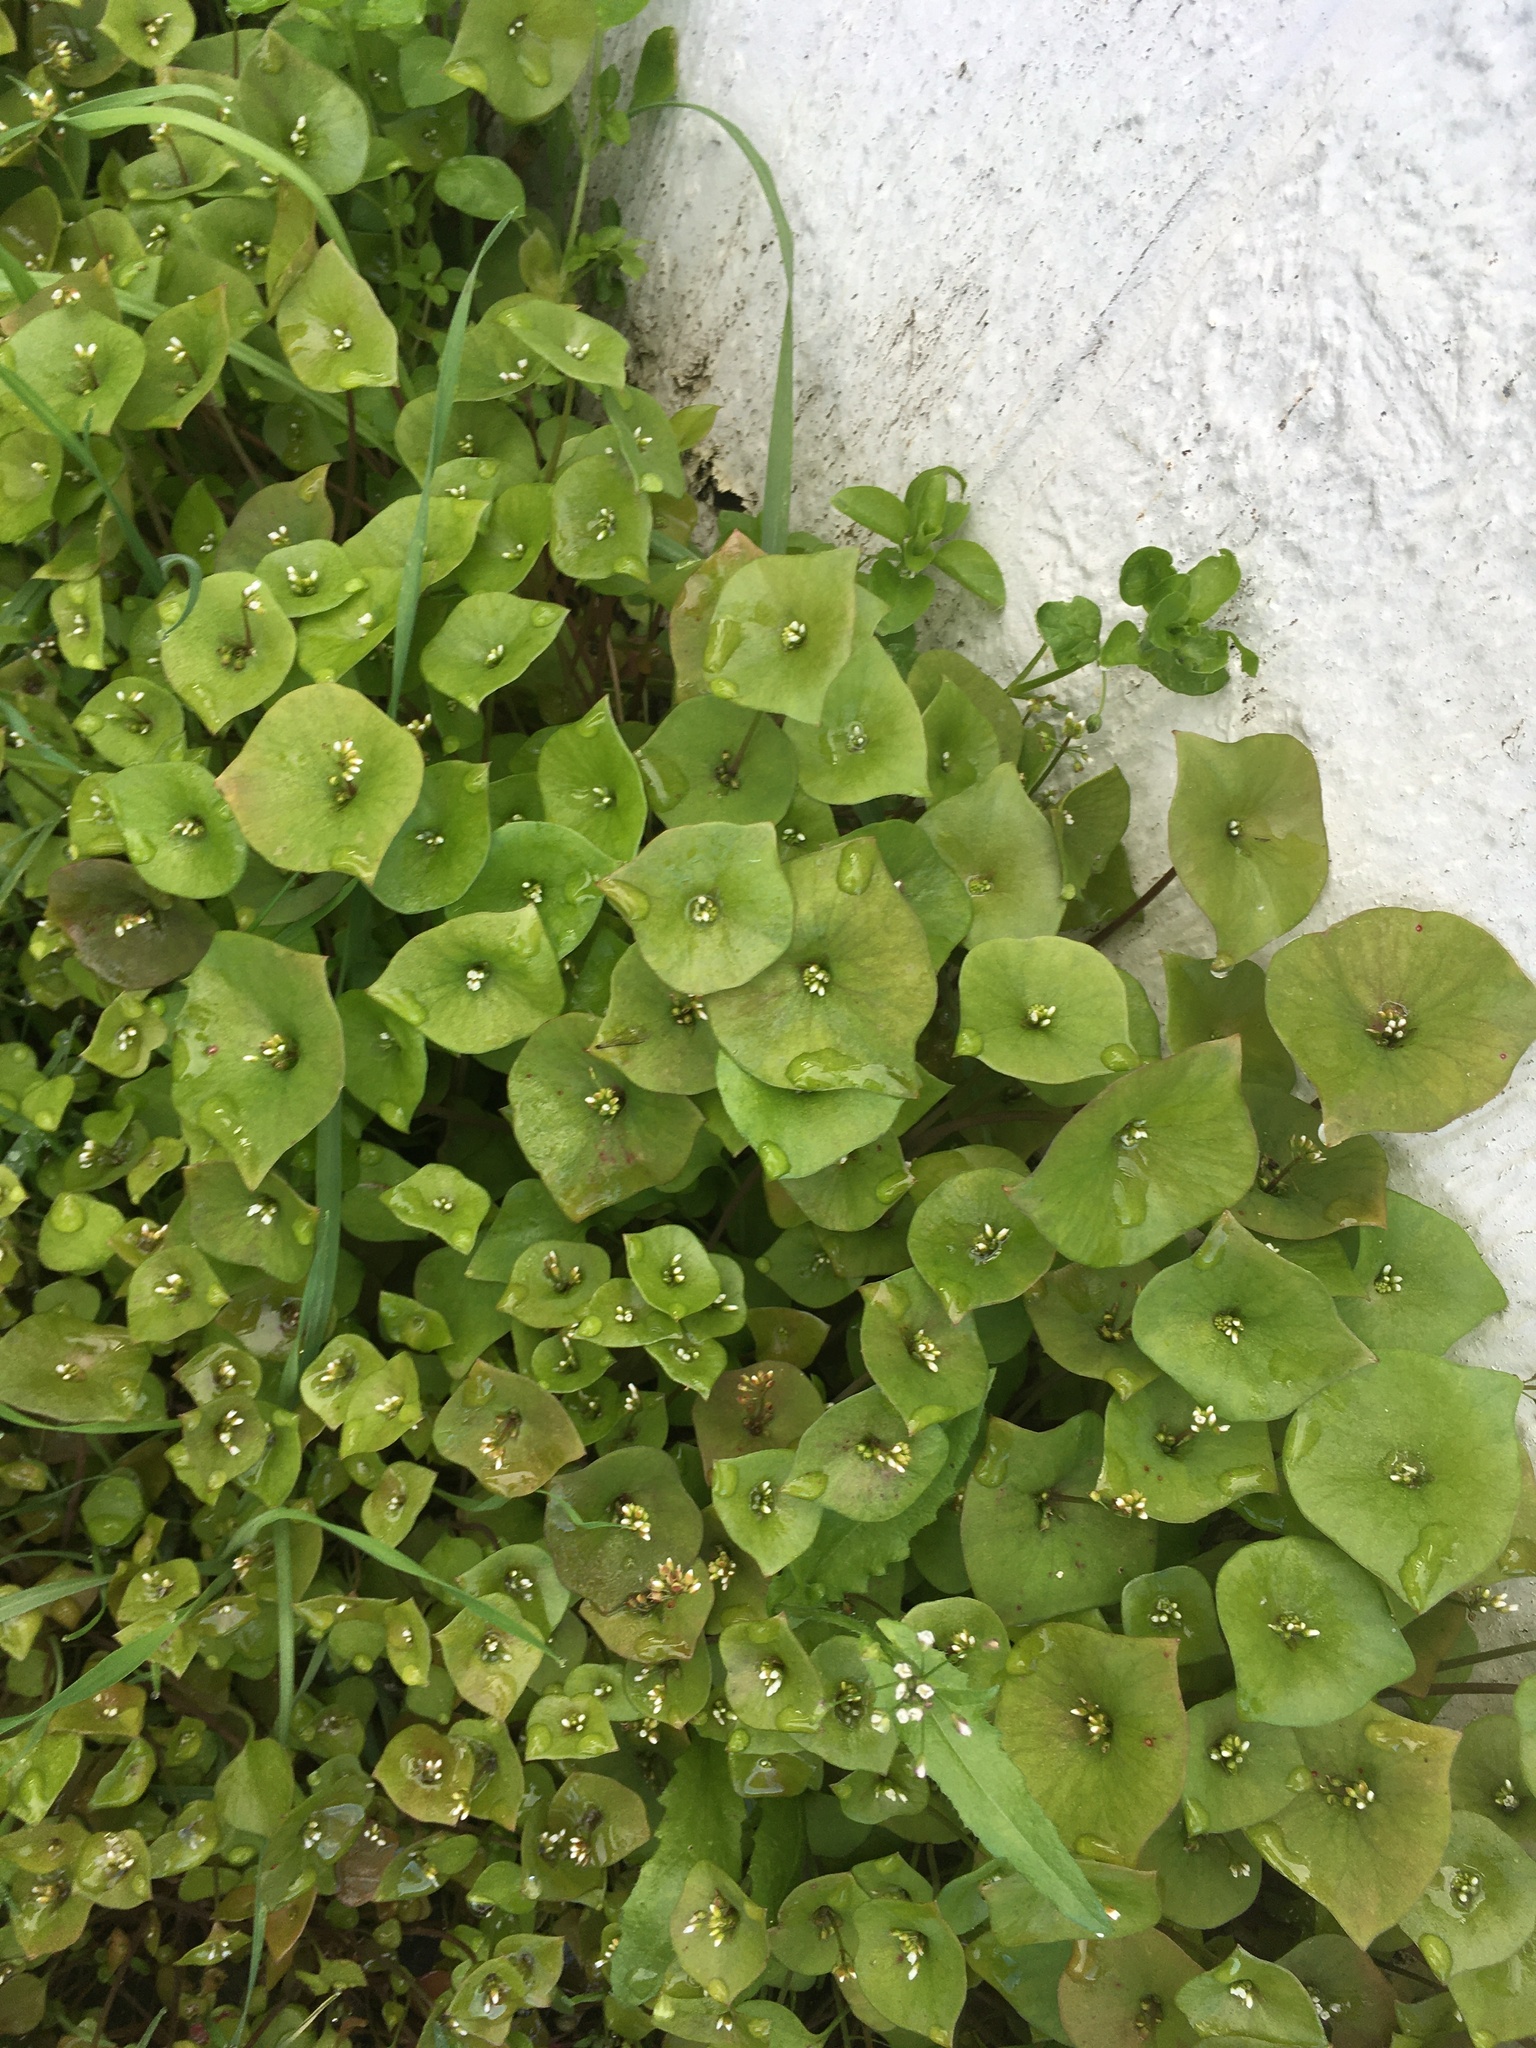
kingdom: Plantae
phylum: Tracheophyta
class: Magnoliopsida
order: Caryophyllales
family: Montiaceae
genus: Claytonia
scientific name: Claytonia perfoliata
